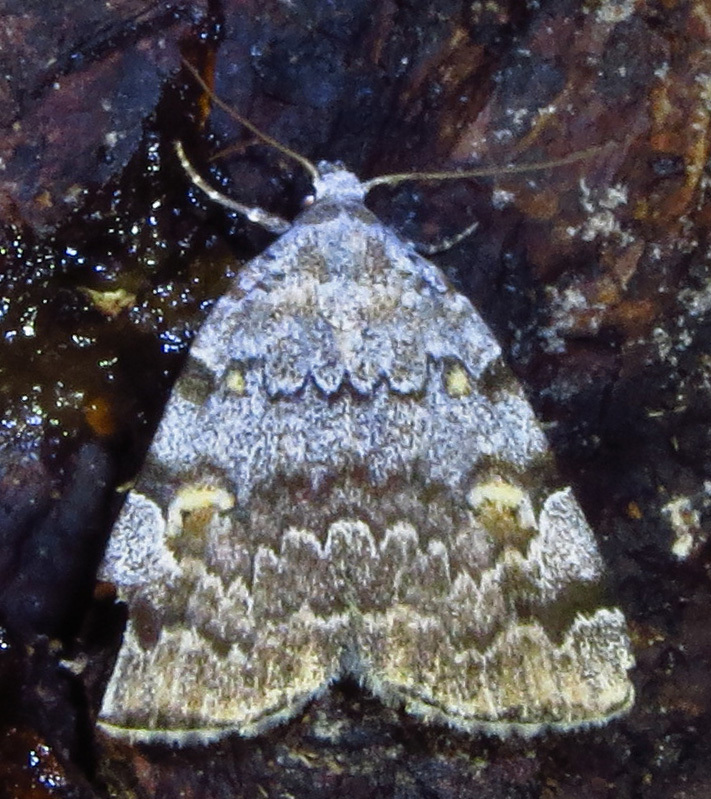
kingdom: Animalia
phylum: Arthropoda
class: Insecta
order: Lepidoptera
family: Erebidae
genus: Idia
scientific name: Idia americalis
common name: American idia moth
